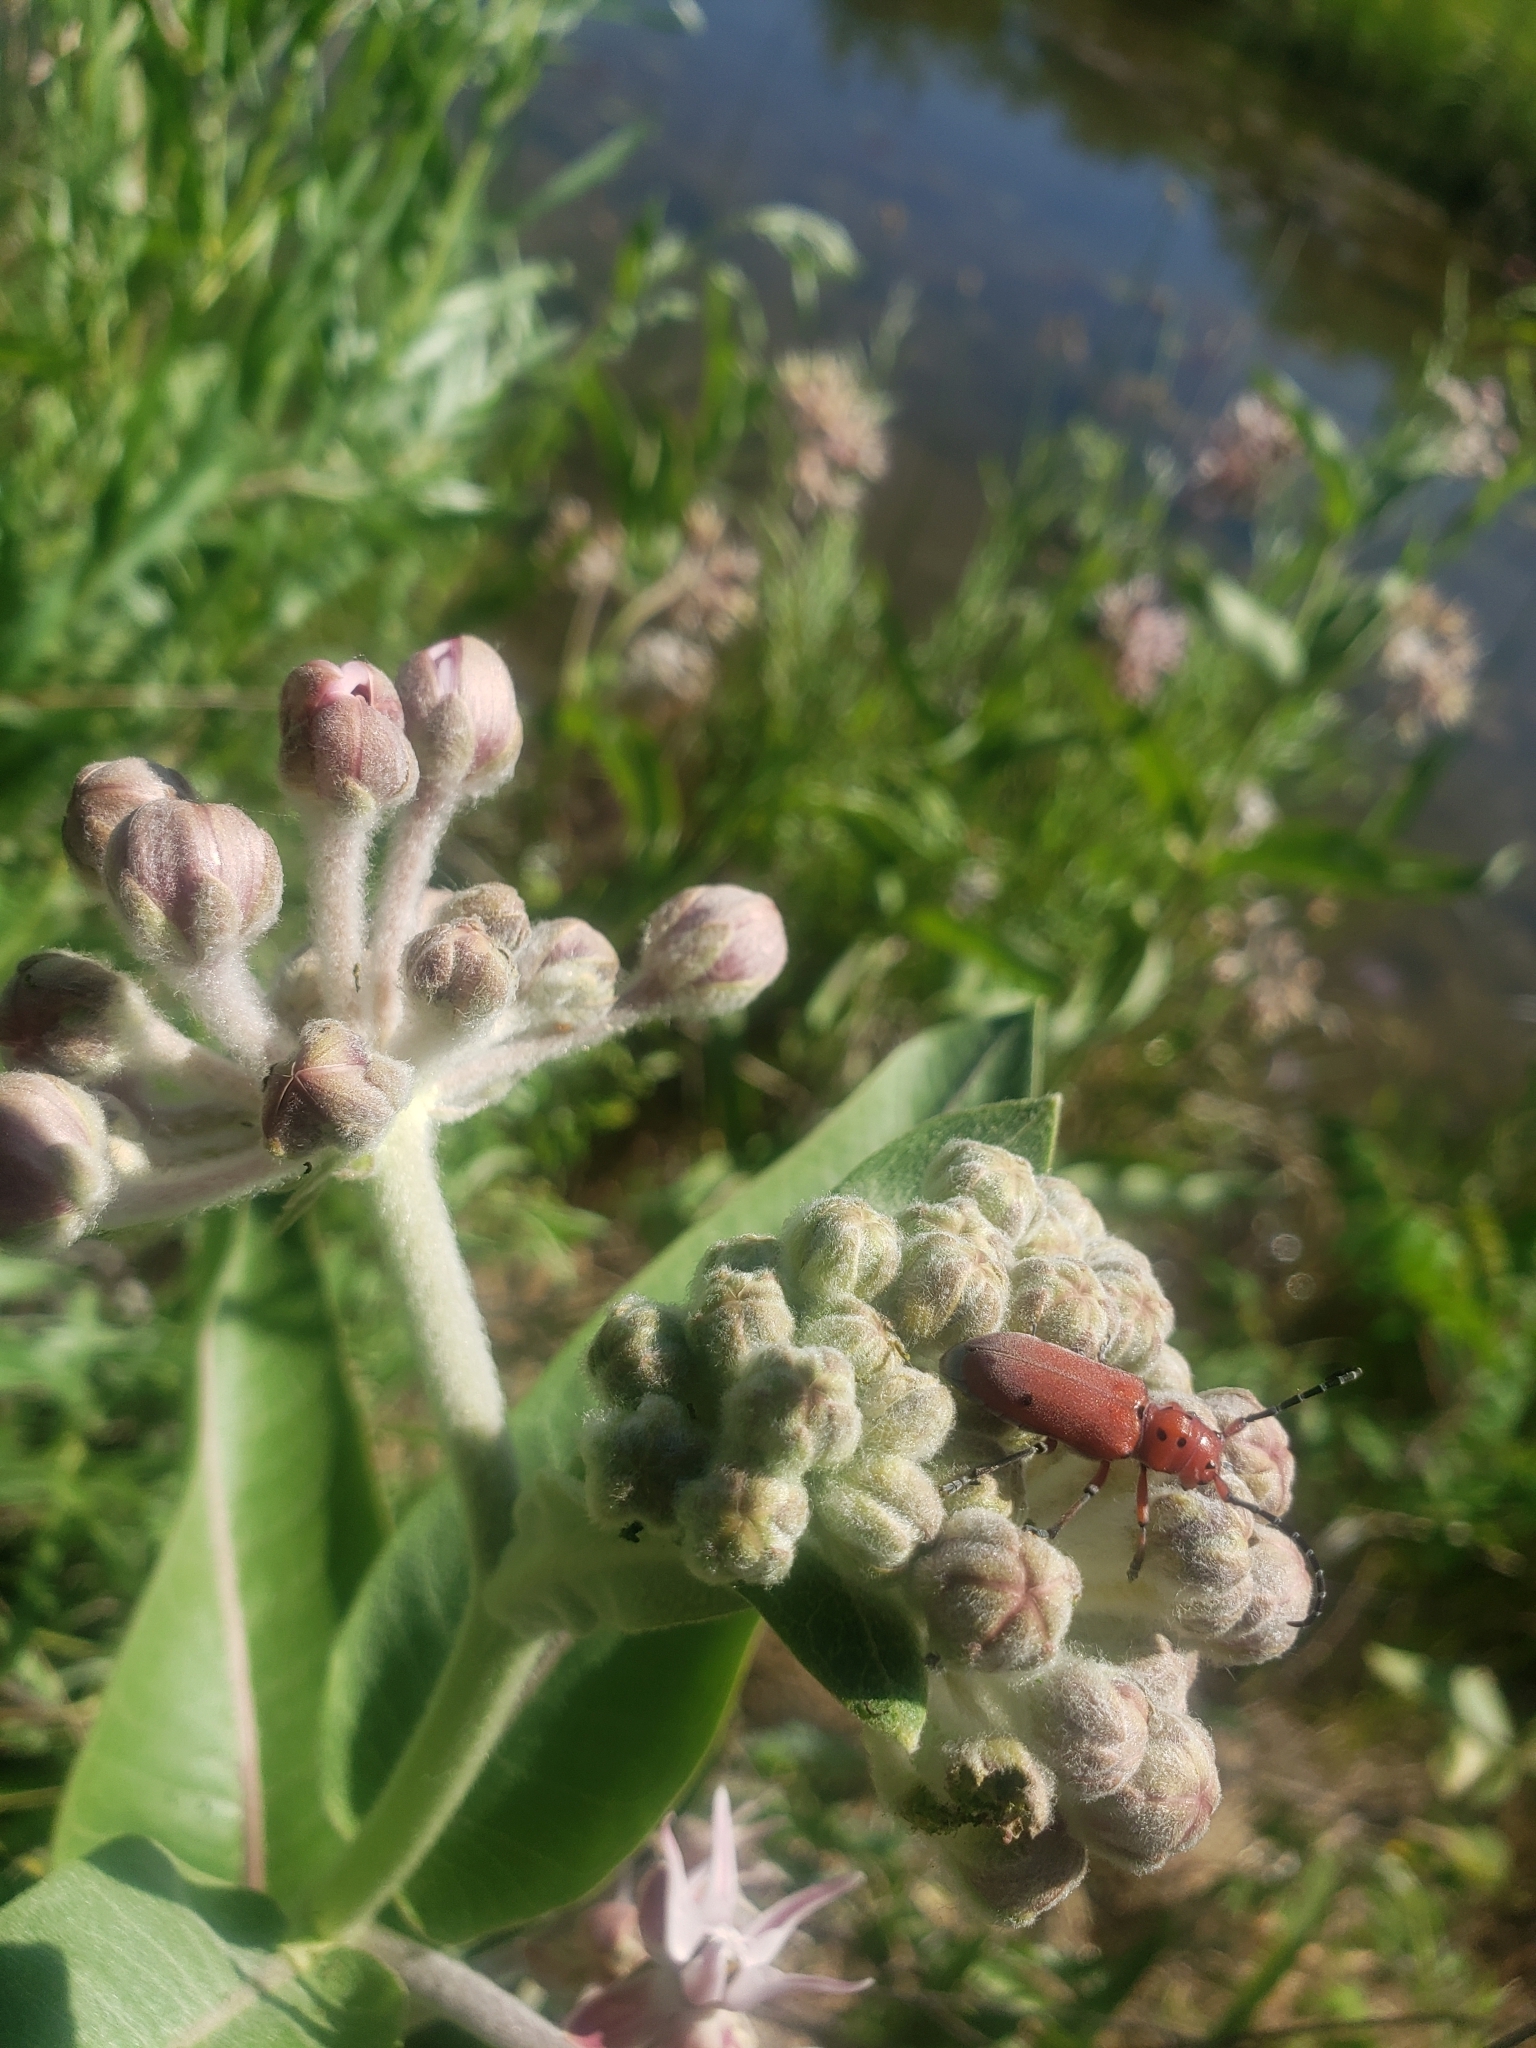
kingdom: Animalia
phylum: Arthropoda
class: Insecta
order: Coleoptera
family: Cerambycidae
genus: Tetraopes
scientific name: Tetraopes femoratus
